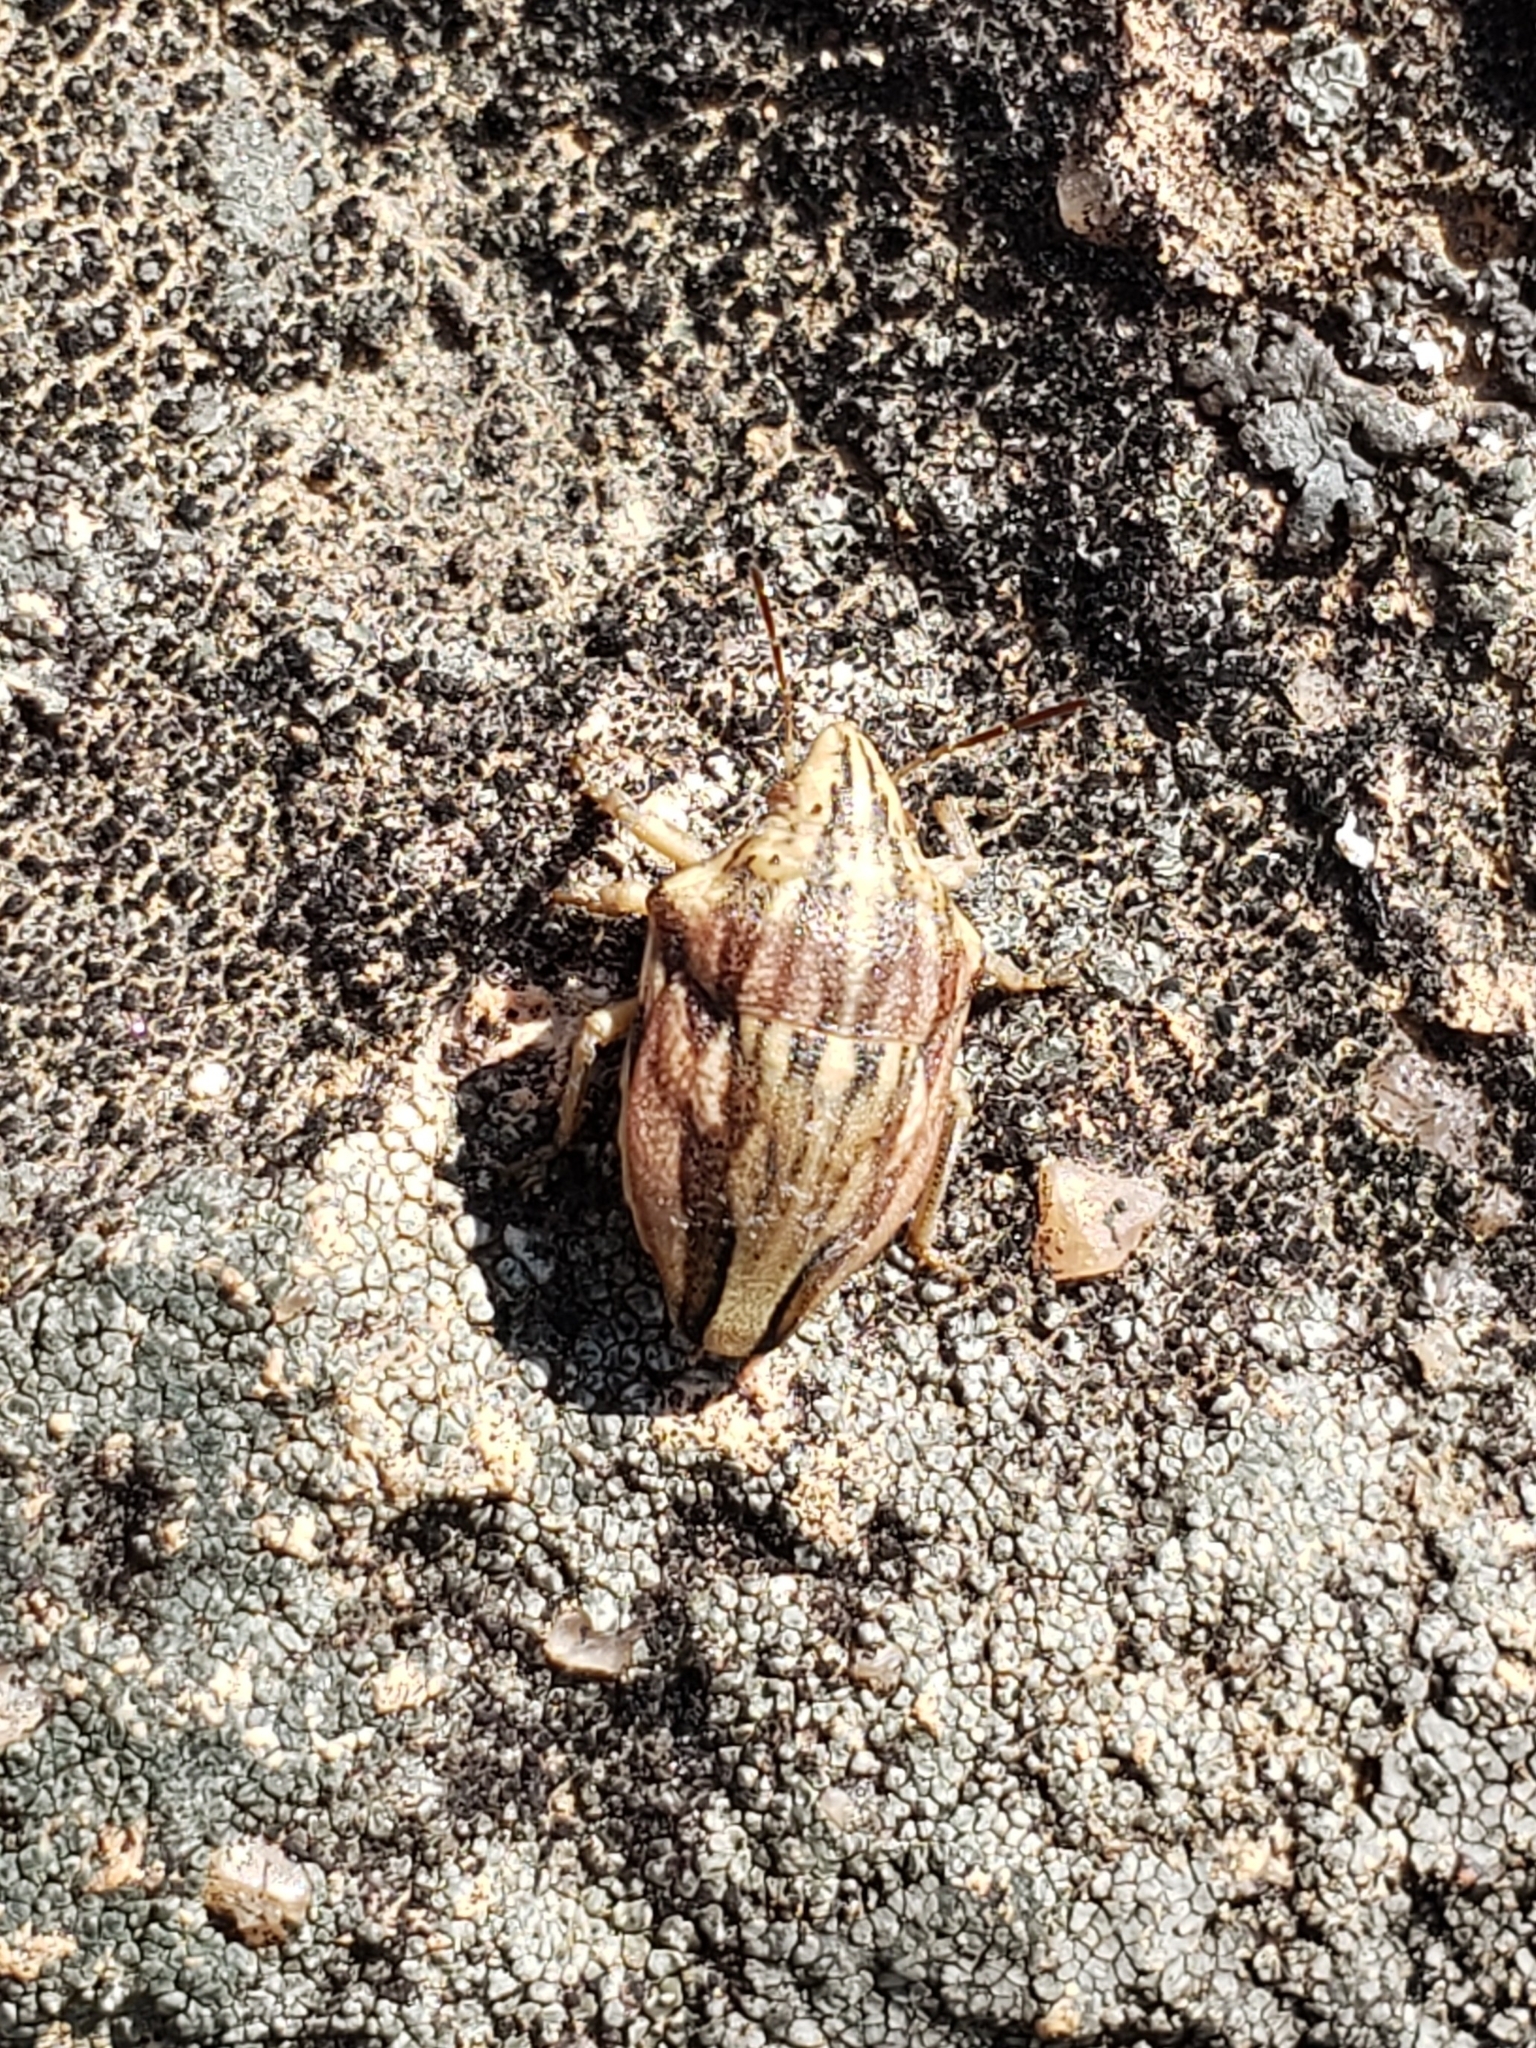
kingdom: Animalia
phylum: Arthropoda
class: Insecta
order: Hemiptera
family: Scutelleridae
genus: Odontotarsus
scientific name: Odontotarsus purpureolineatus
